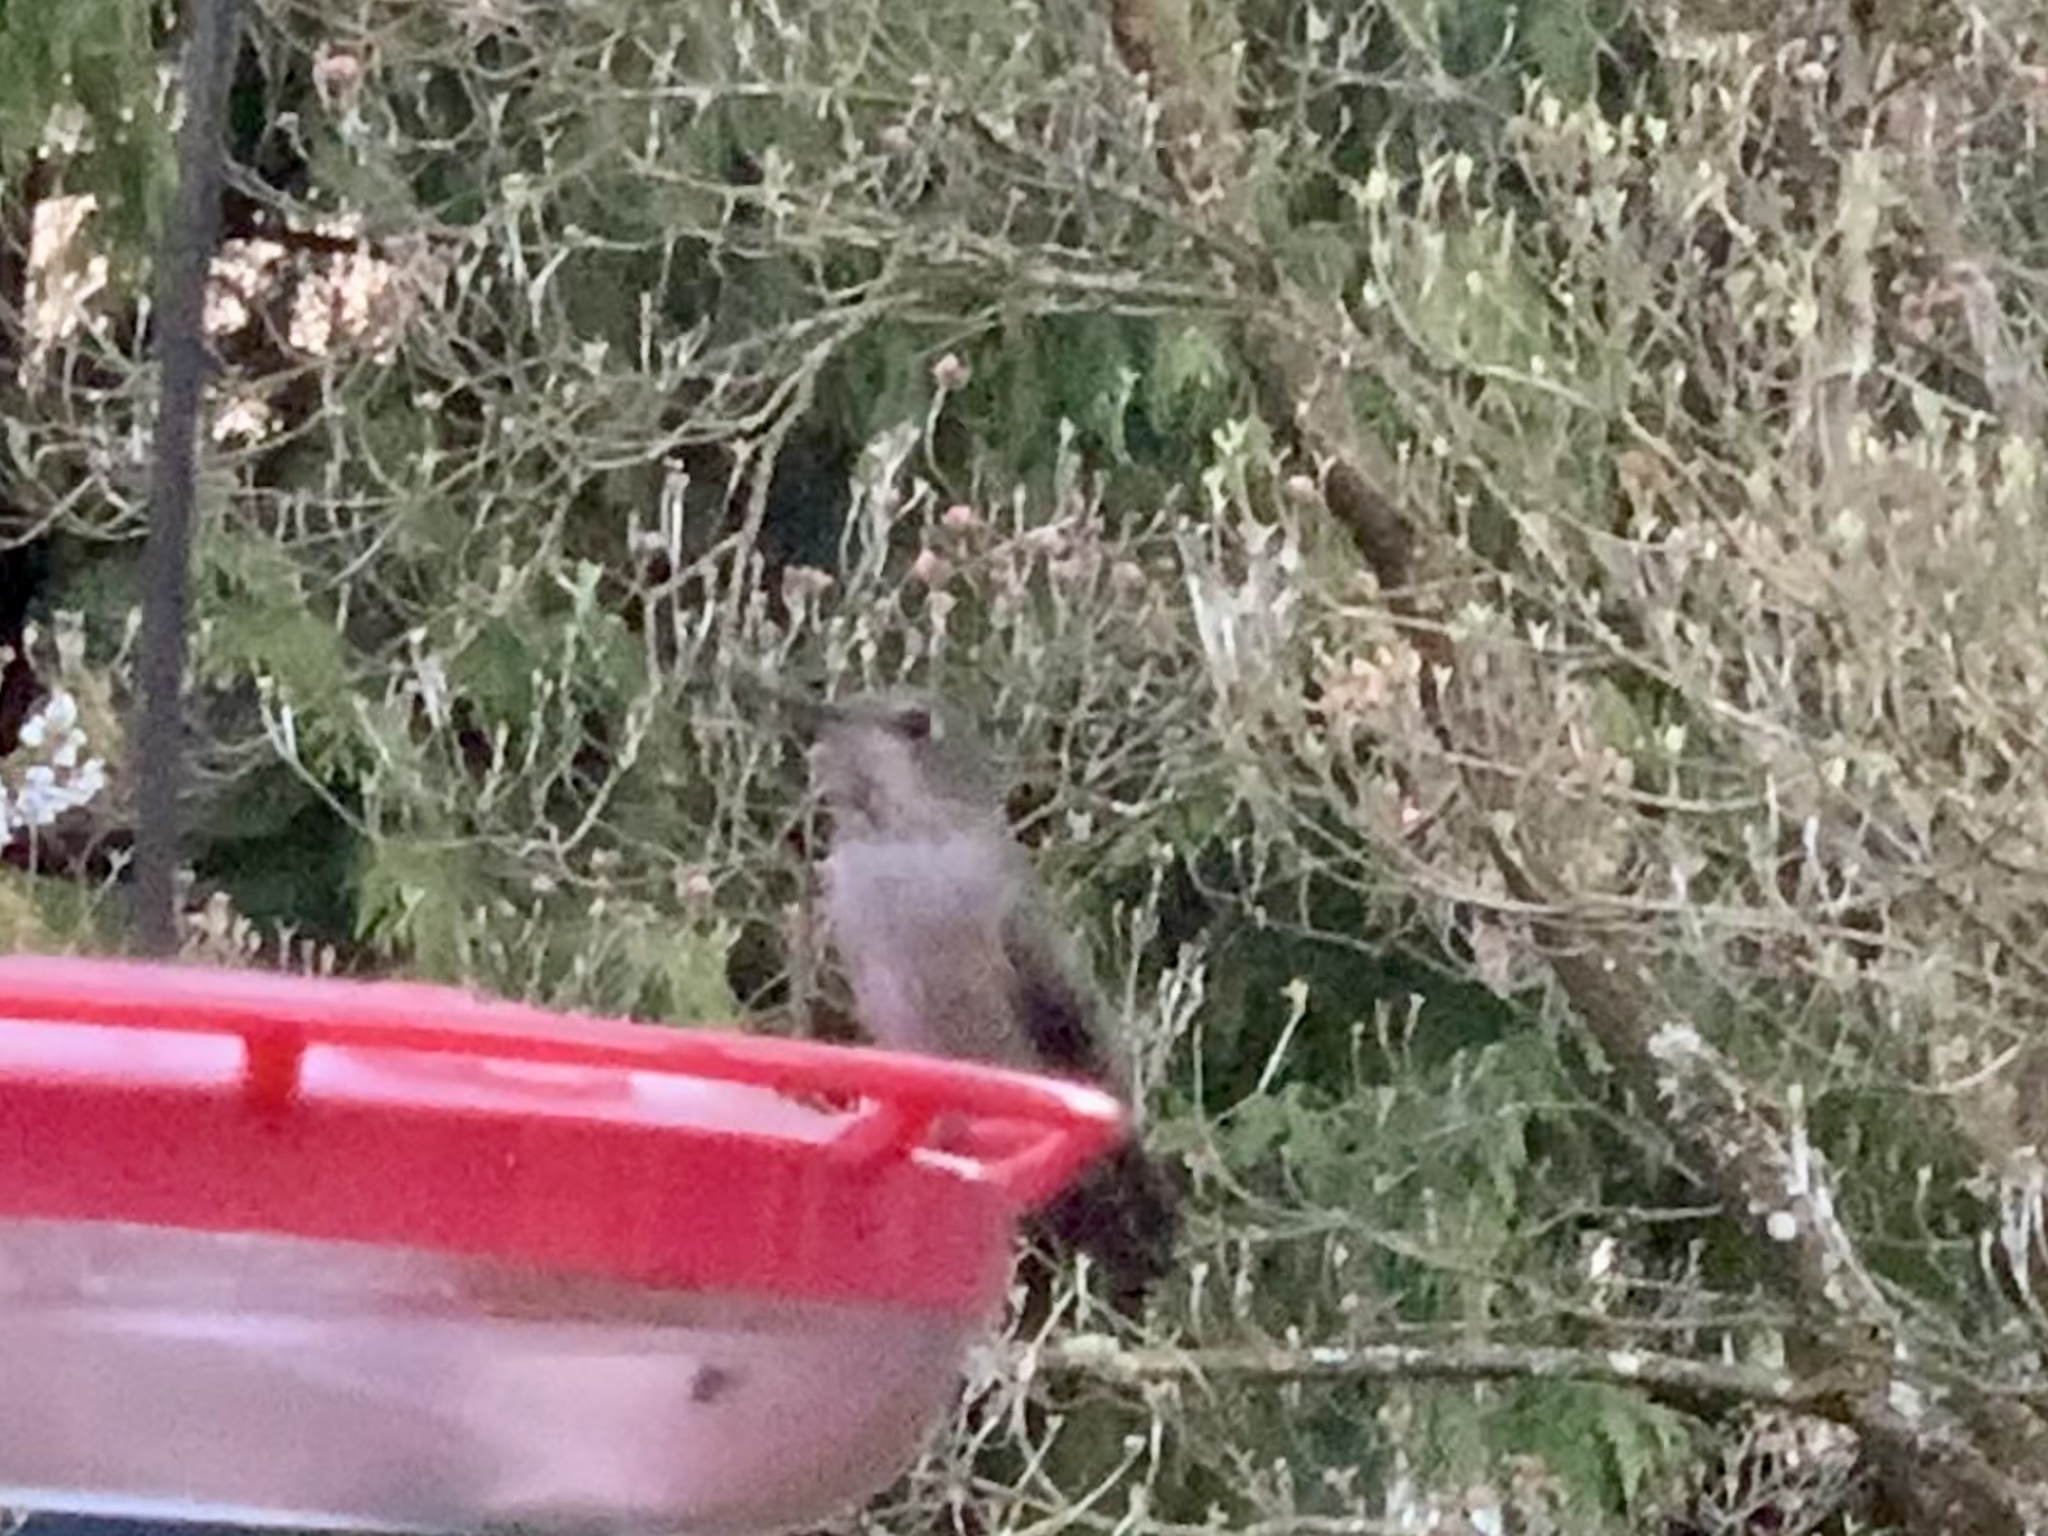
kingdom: Animalia
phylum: Chordata
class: Aves
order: Apodiformes
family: Trochilidae
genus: Calypte
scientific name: Calypte anna
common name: Anna's hummingbird
